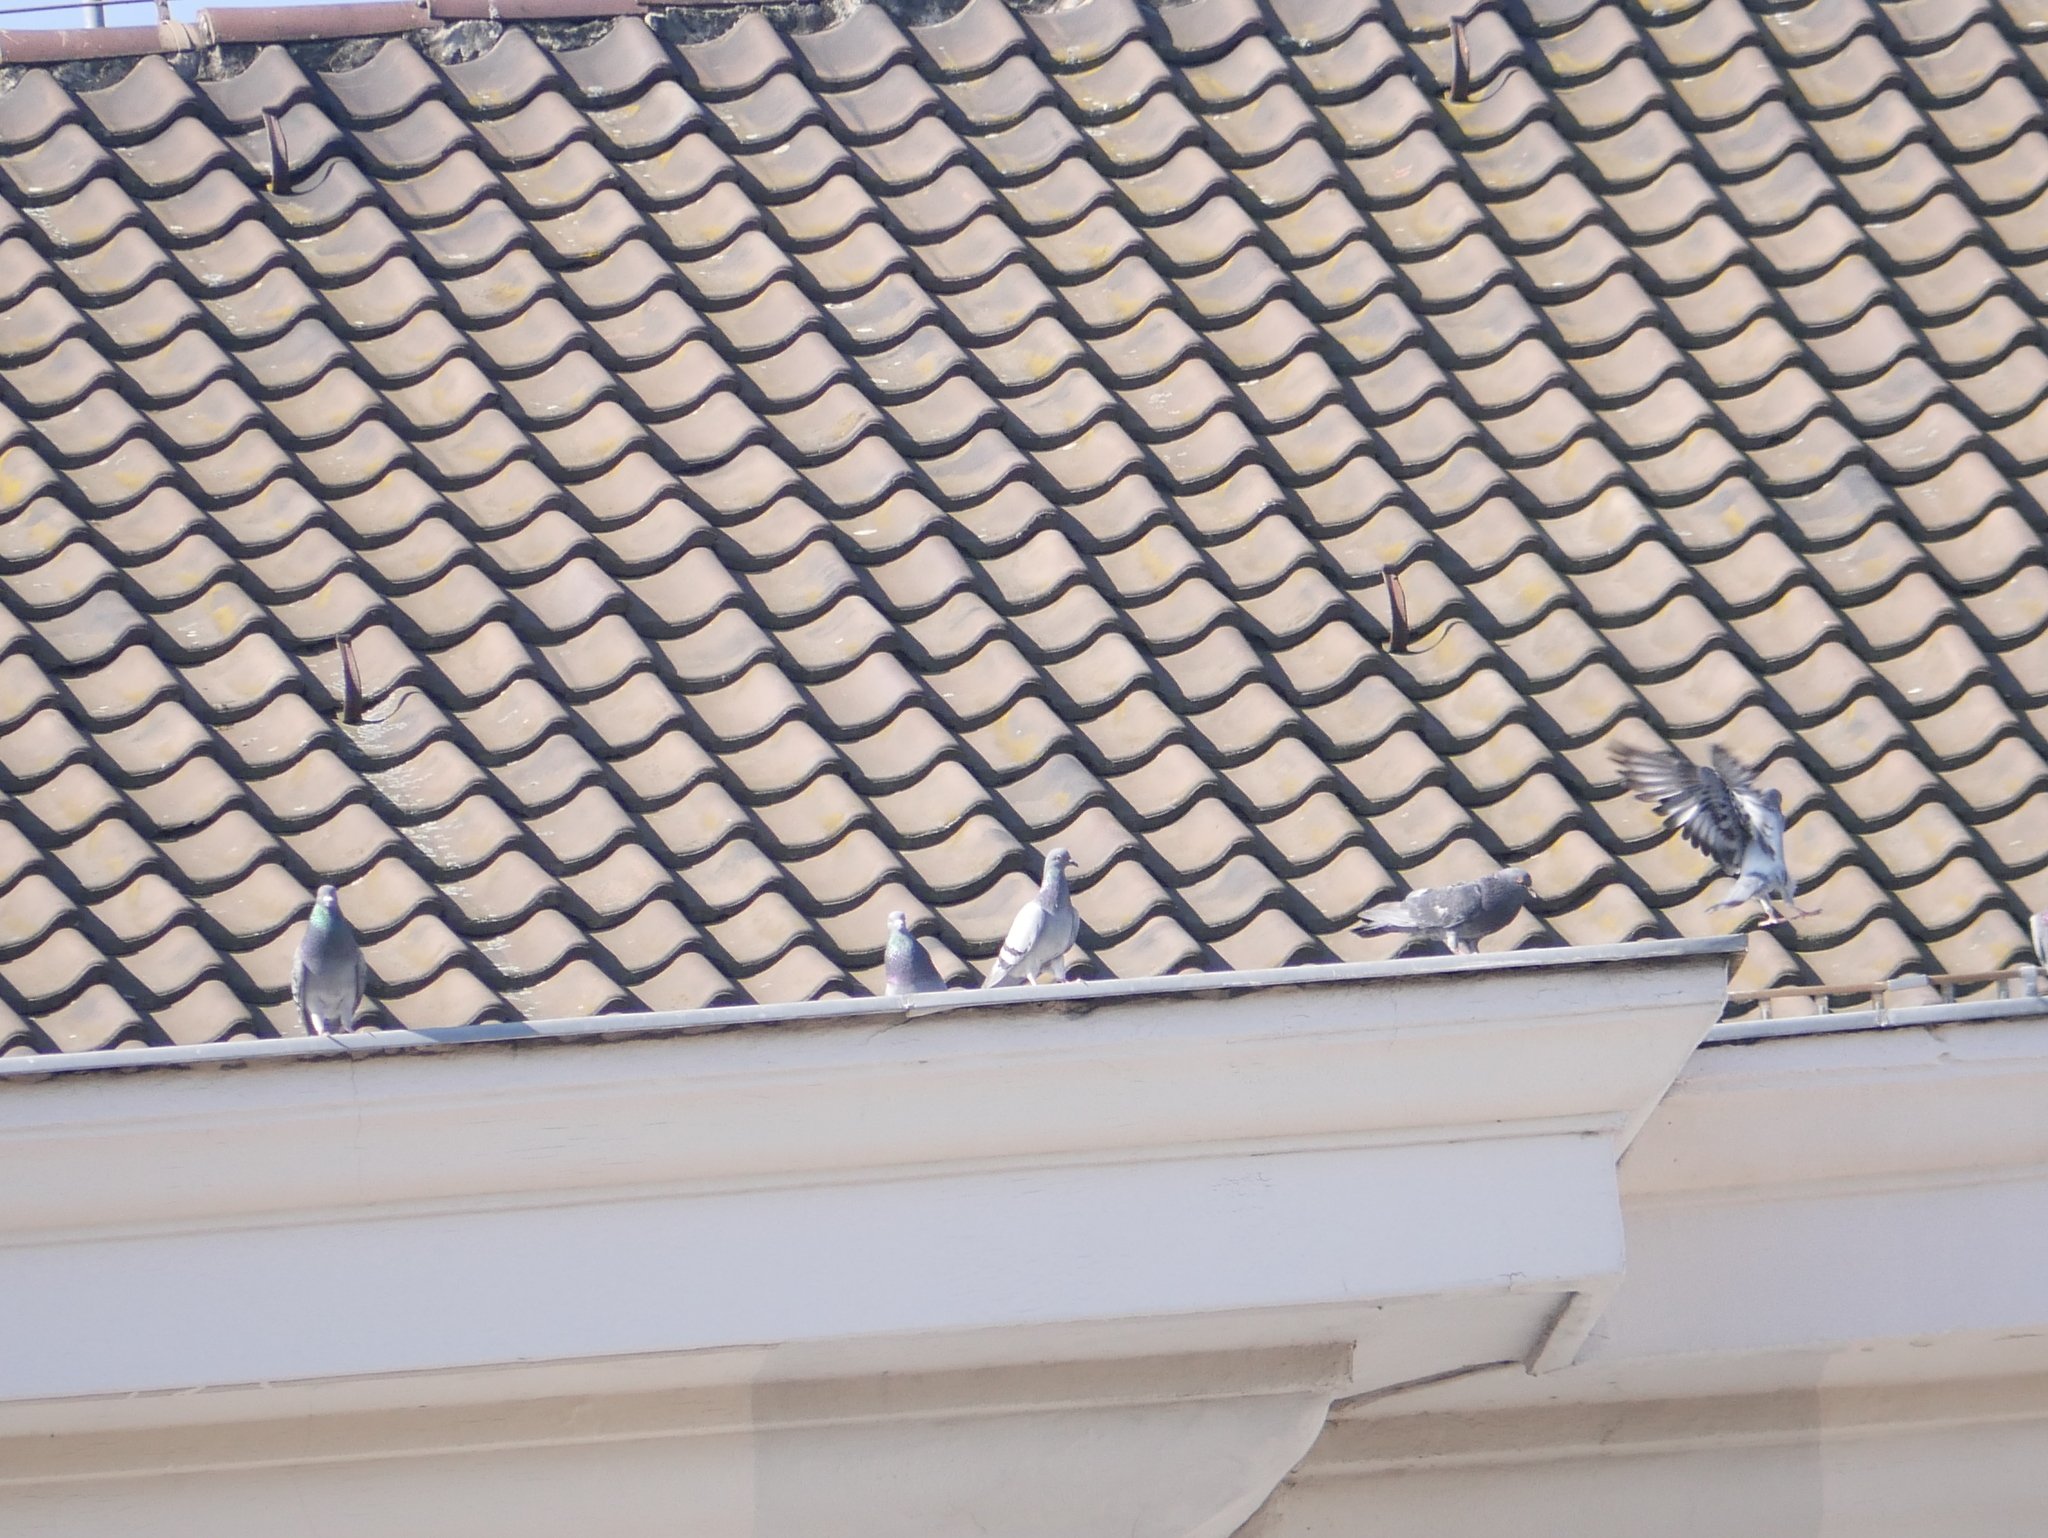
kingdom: Animalia
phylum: Chordata
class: Aves
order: Columbiformes
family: Columbidae
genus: Columba
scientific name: Columba livia
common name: Rock pigeon
